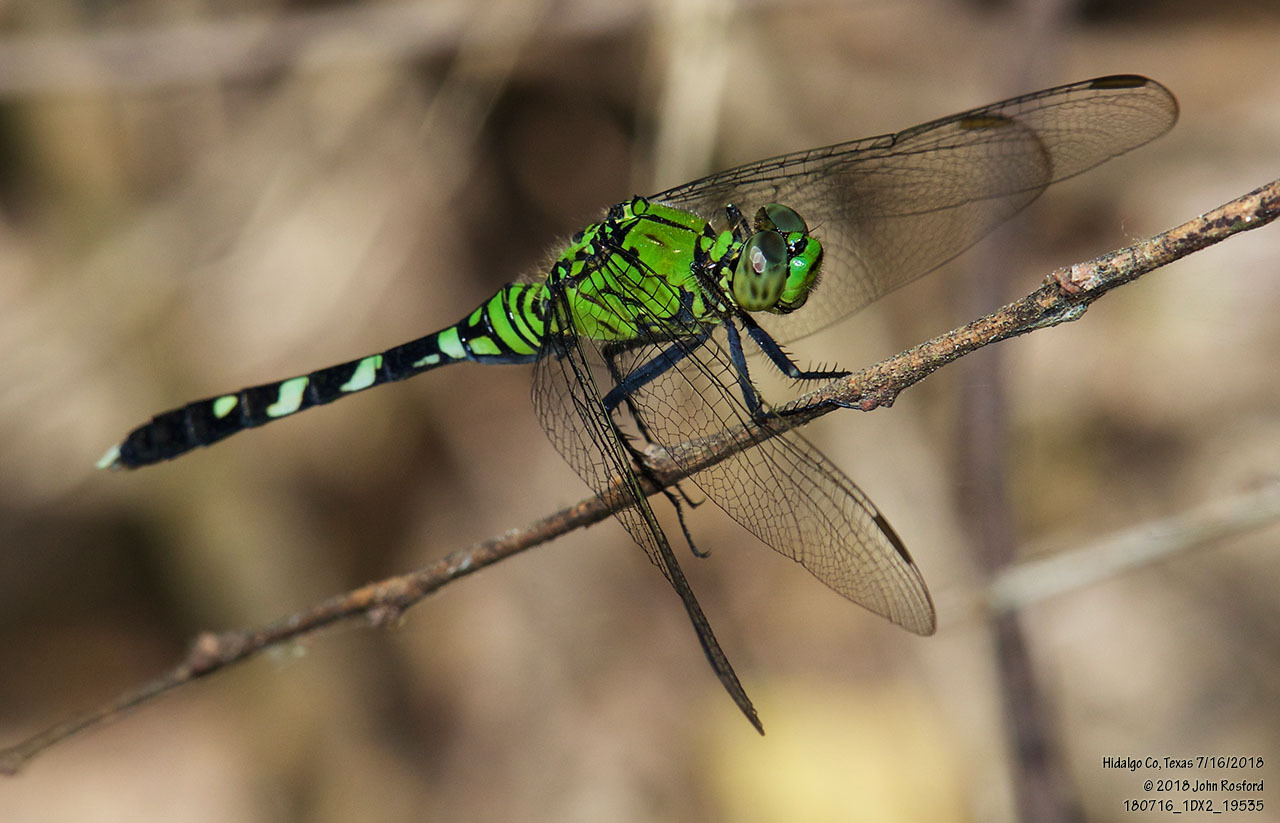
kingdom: Animalia
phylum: Arthropoda
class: Insecta
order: Odonata
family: Libellulidae
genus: Erythemis
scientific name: Erythemis simplicicollis
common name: Eastern pondhawk
